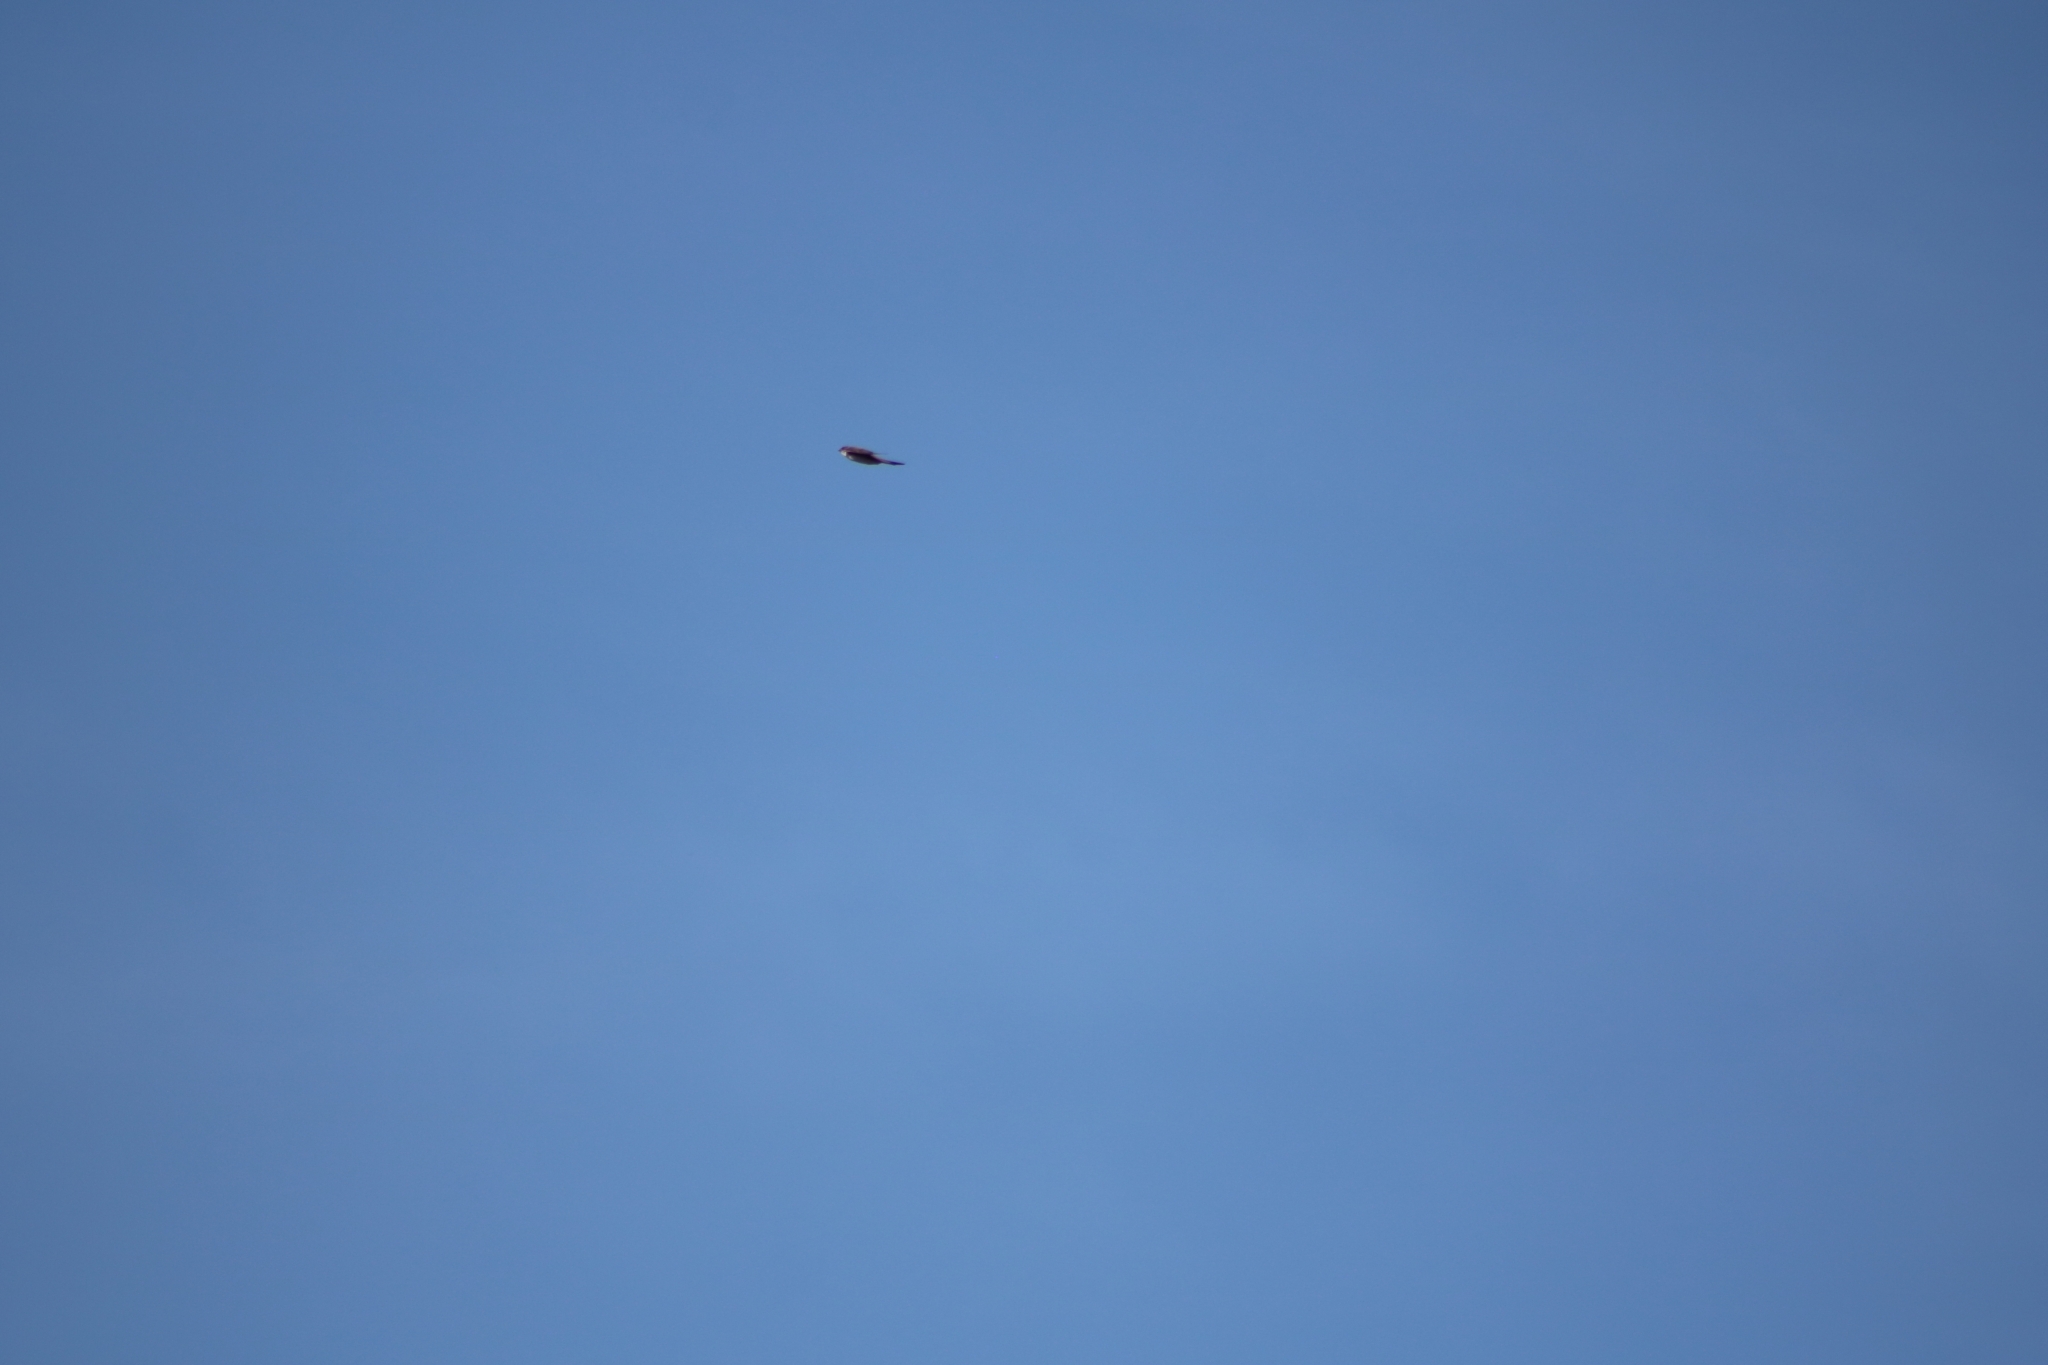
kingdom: Animalia
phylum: Chordata
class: Aves
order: Passeriformes
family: Hirundinidae
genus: Riparia
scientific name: Riparia riparia
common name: Sand martin
